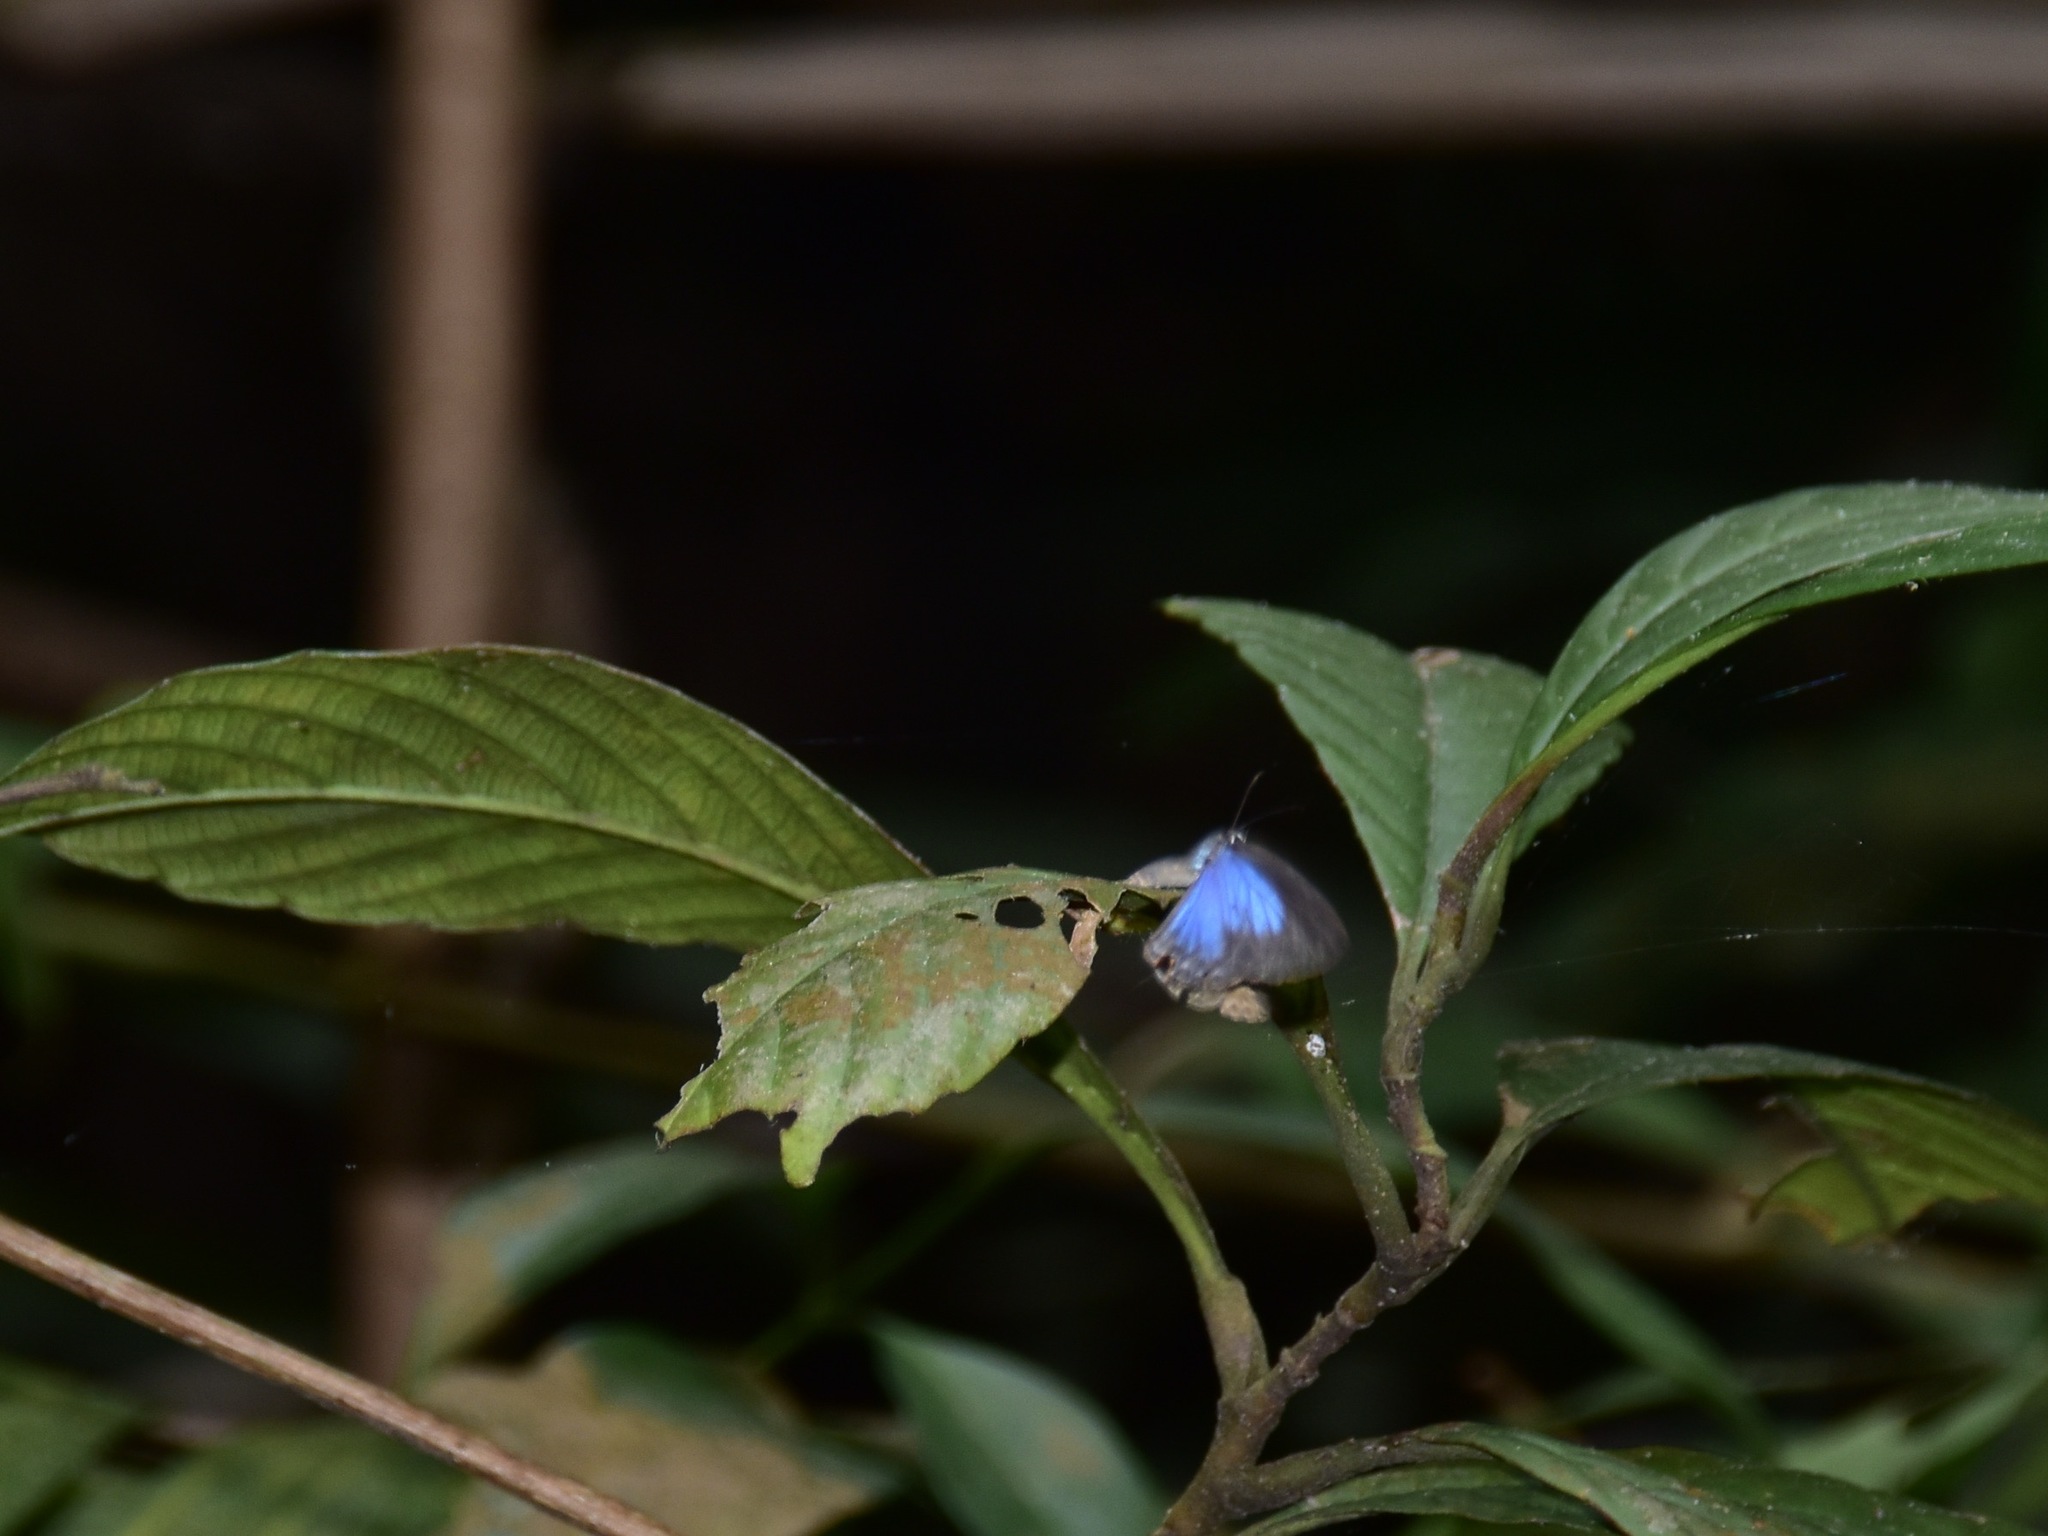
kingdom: Animalia
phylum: Arthropoda
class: Insecta
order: Lepidoptera
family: Lycaenidae
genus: Jamides
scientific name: Jamides bochus
